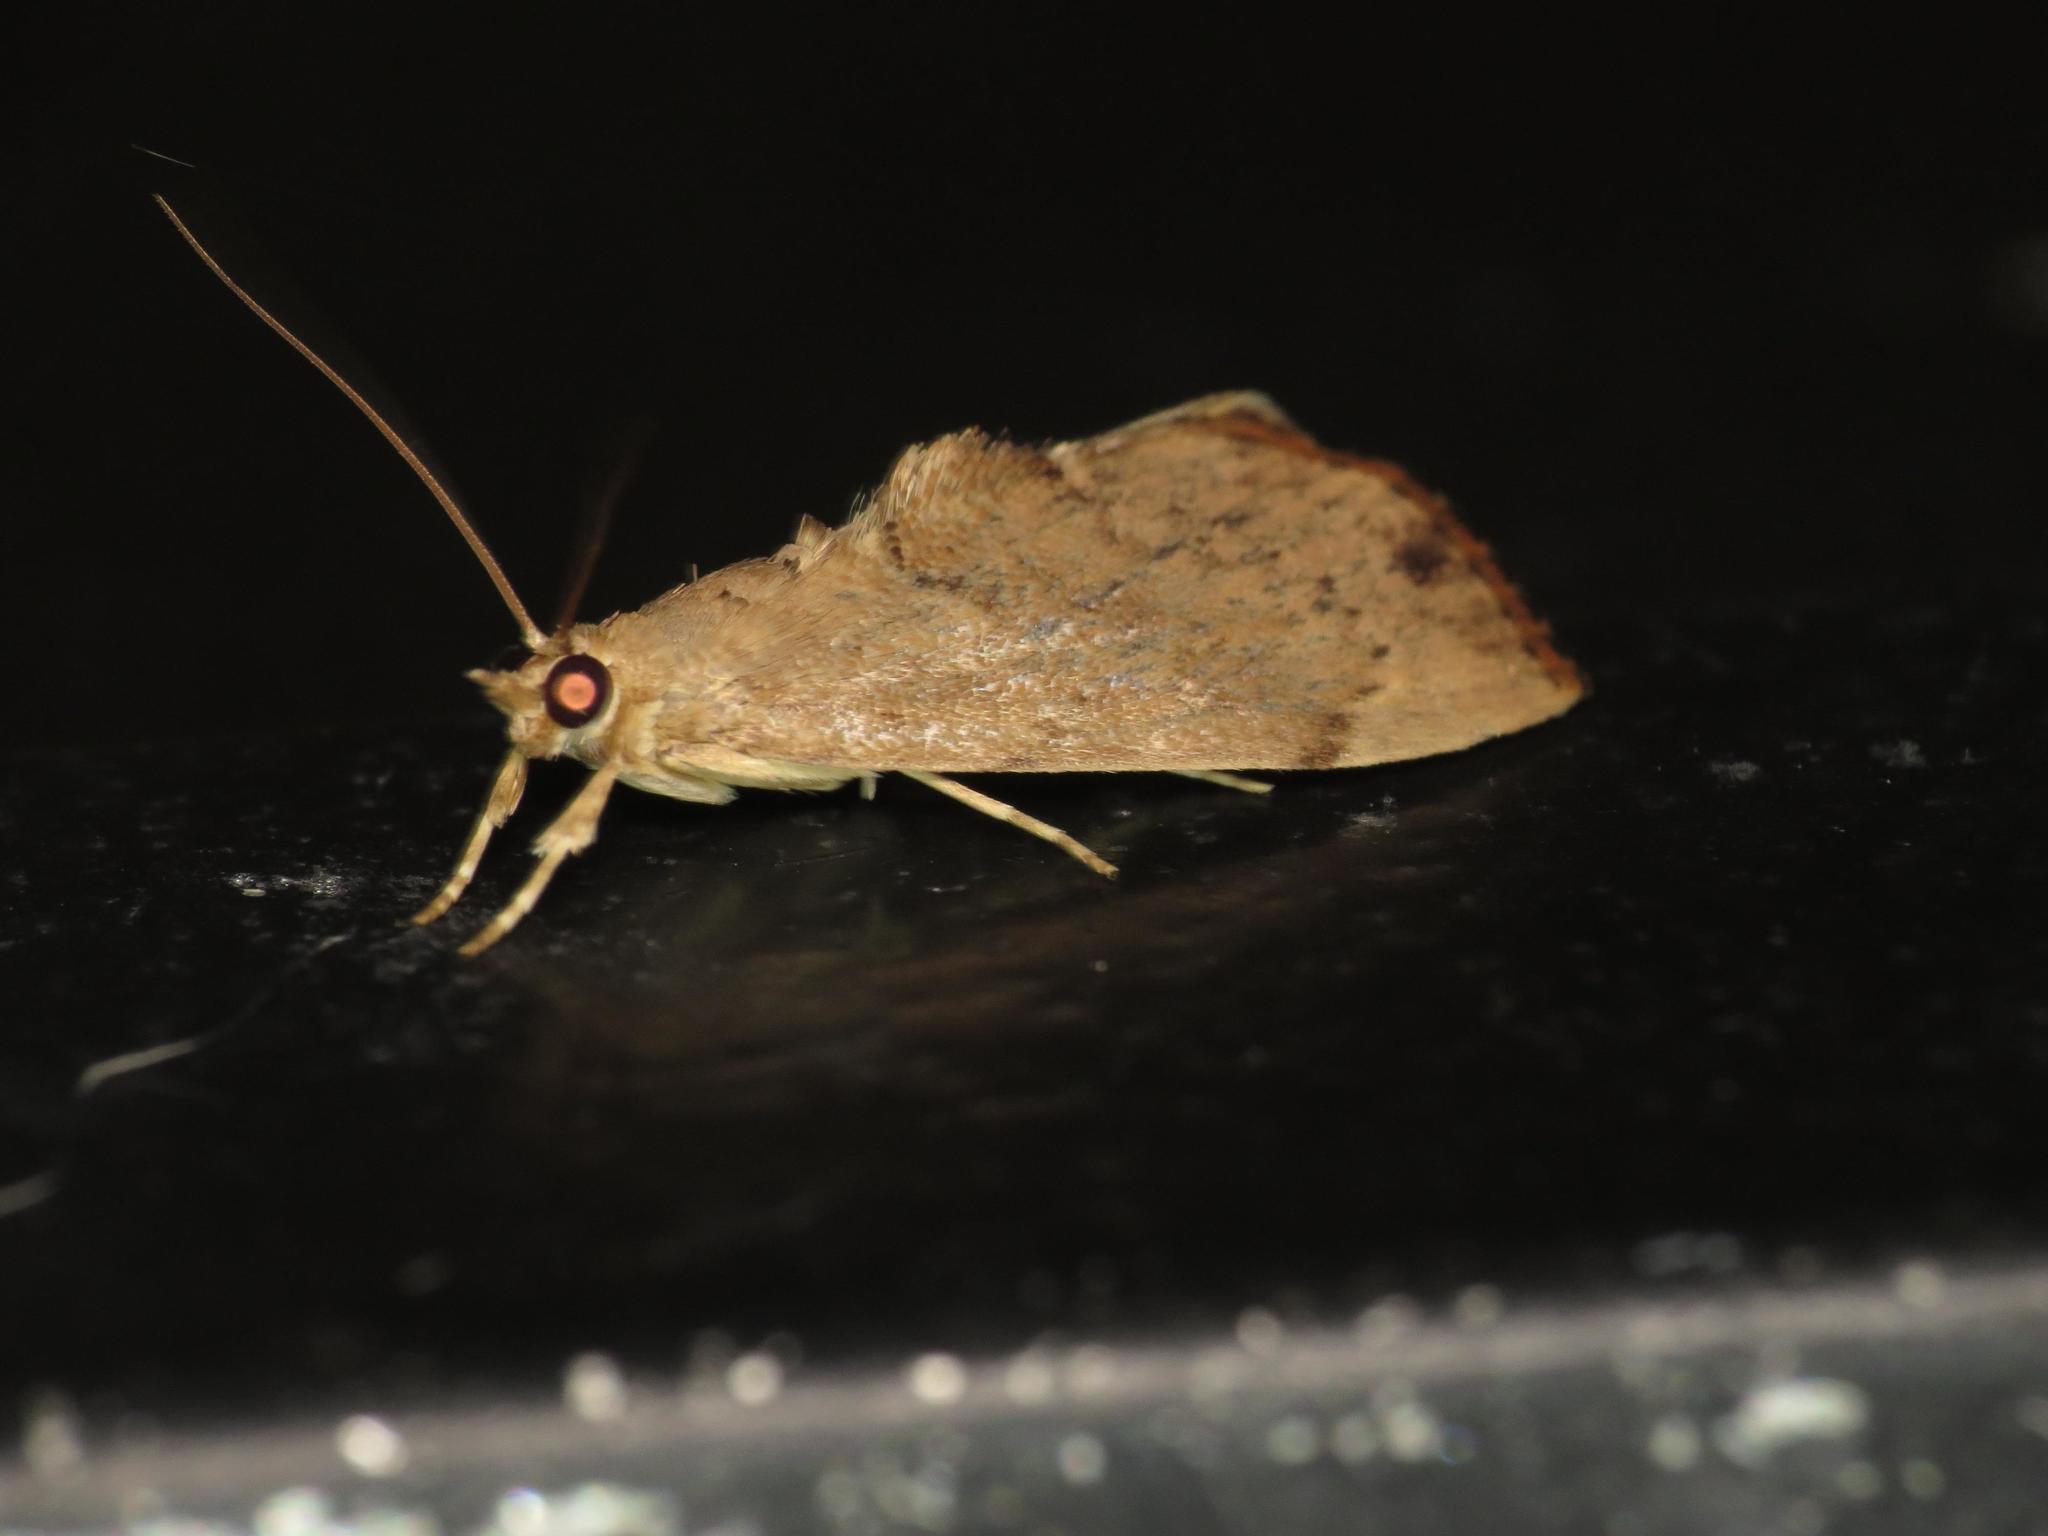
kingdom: Animalia
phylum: Arthropoda
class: Insecta
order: Lepidoptera
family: Crambidae
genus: Crocidolomia
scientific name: Crocidolomia suffusalis
